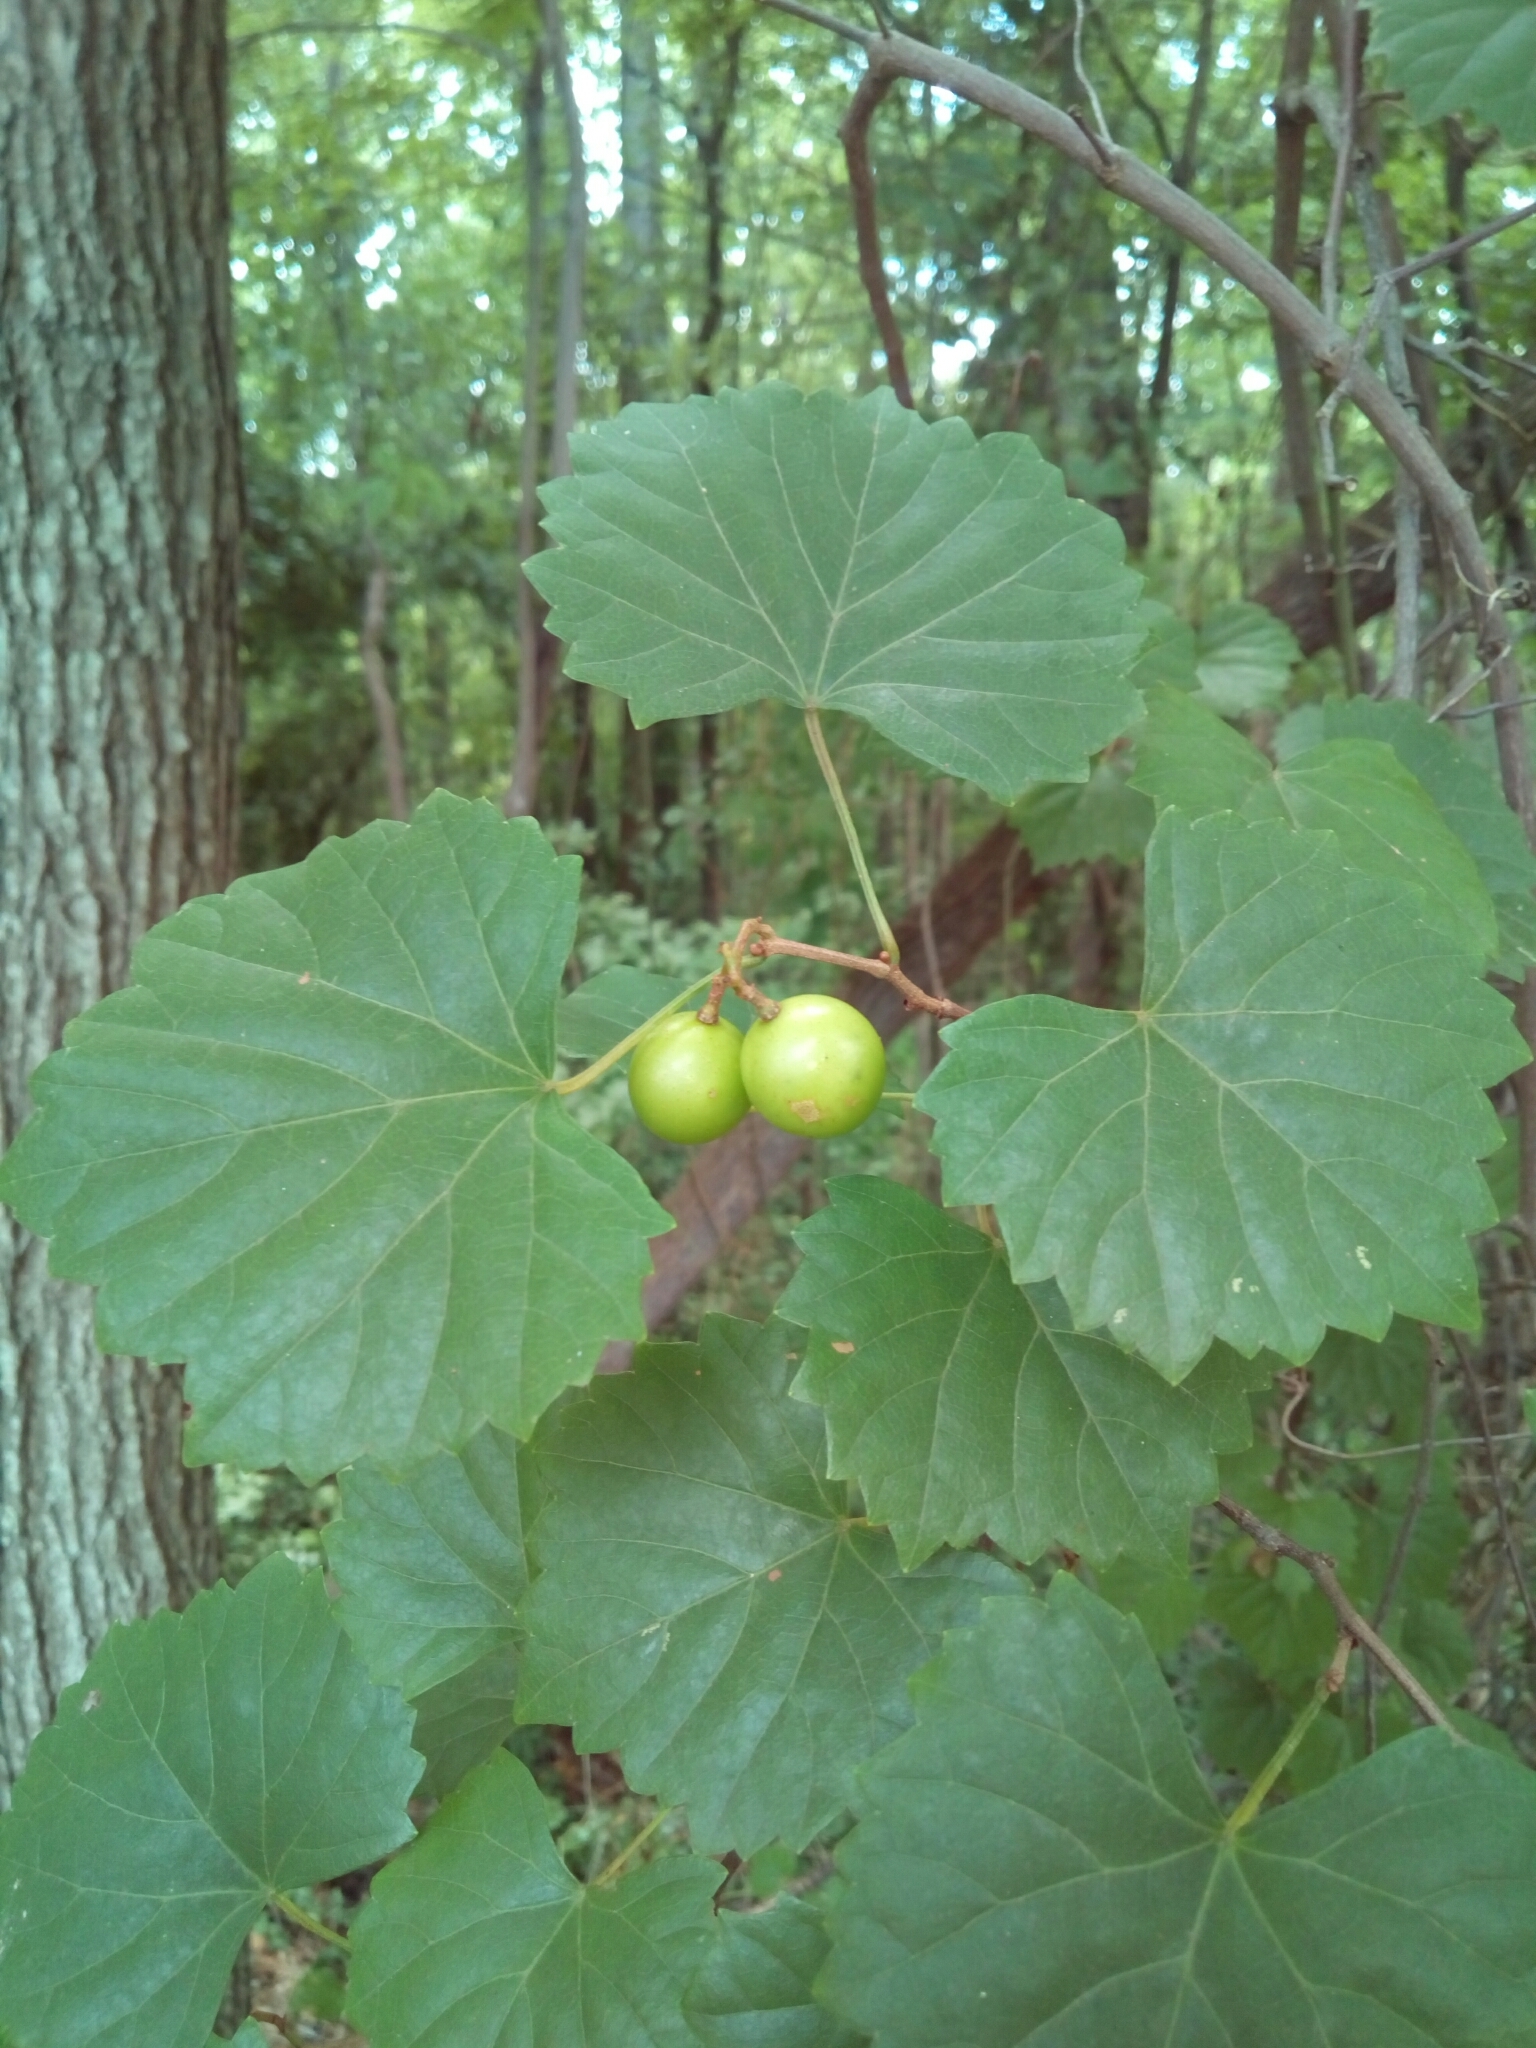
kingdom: Plantae
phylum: Tracheophyta
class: Magnoliopsida
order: Vitales
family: Vitaceae
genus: Vitis
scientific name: Vitis rotundifolia
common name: Muscadine grape
